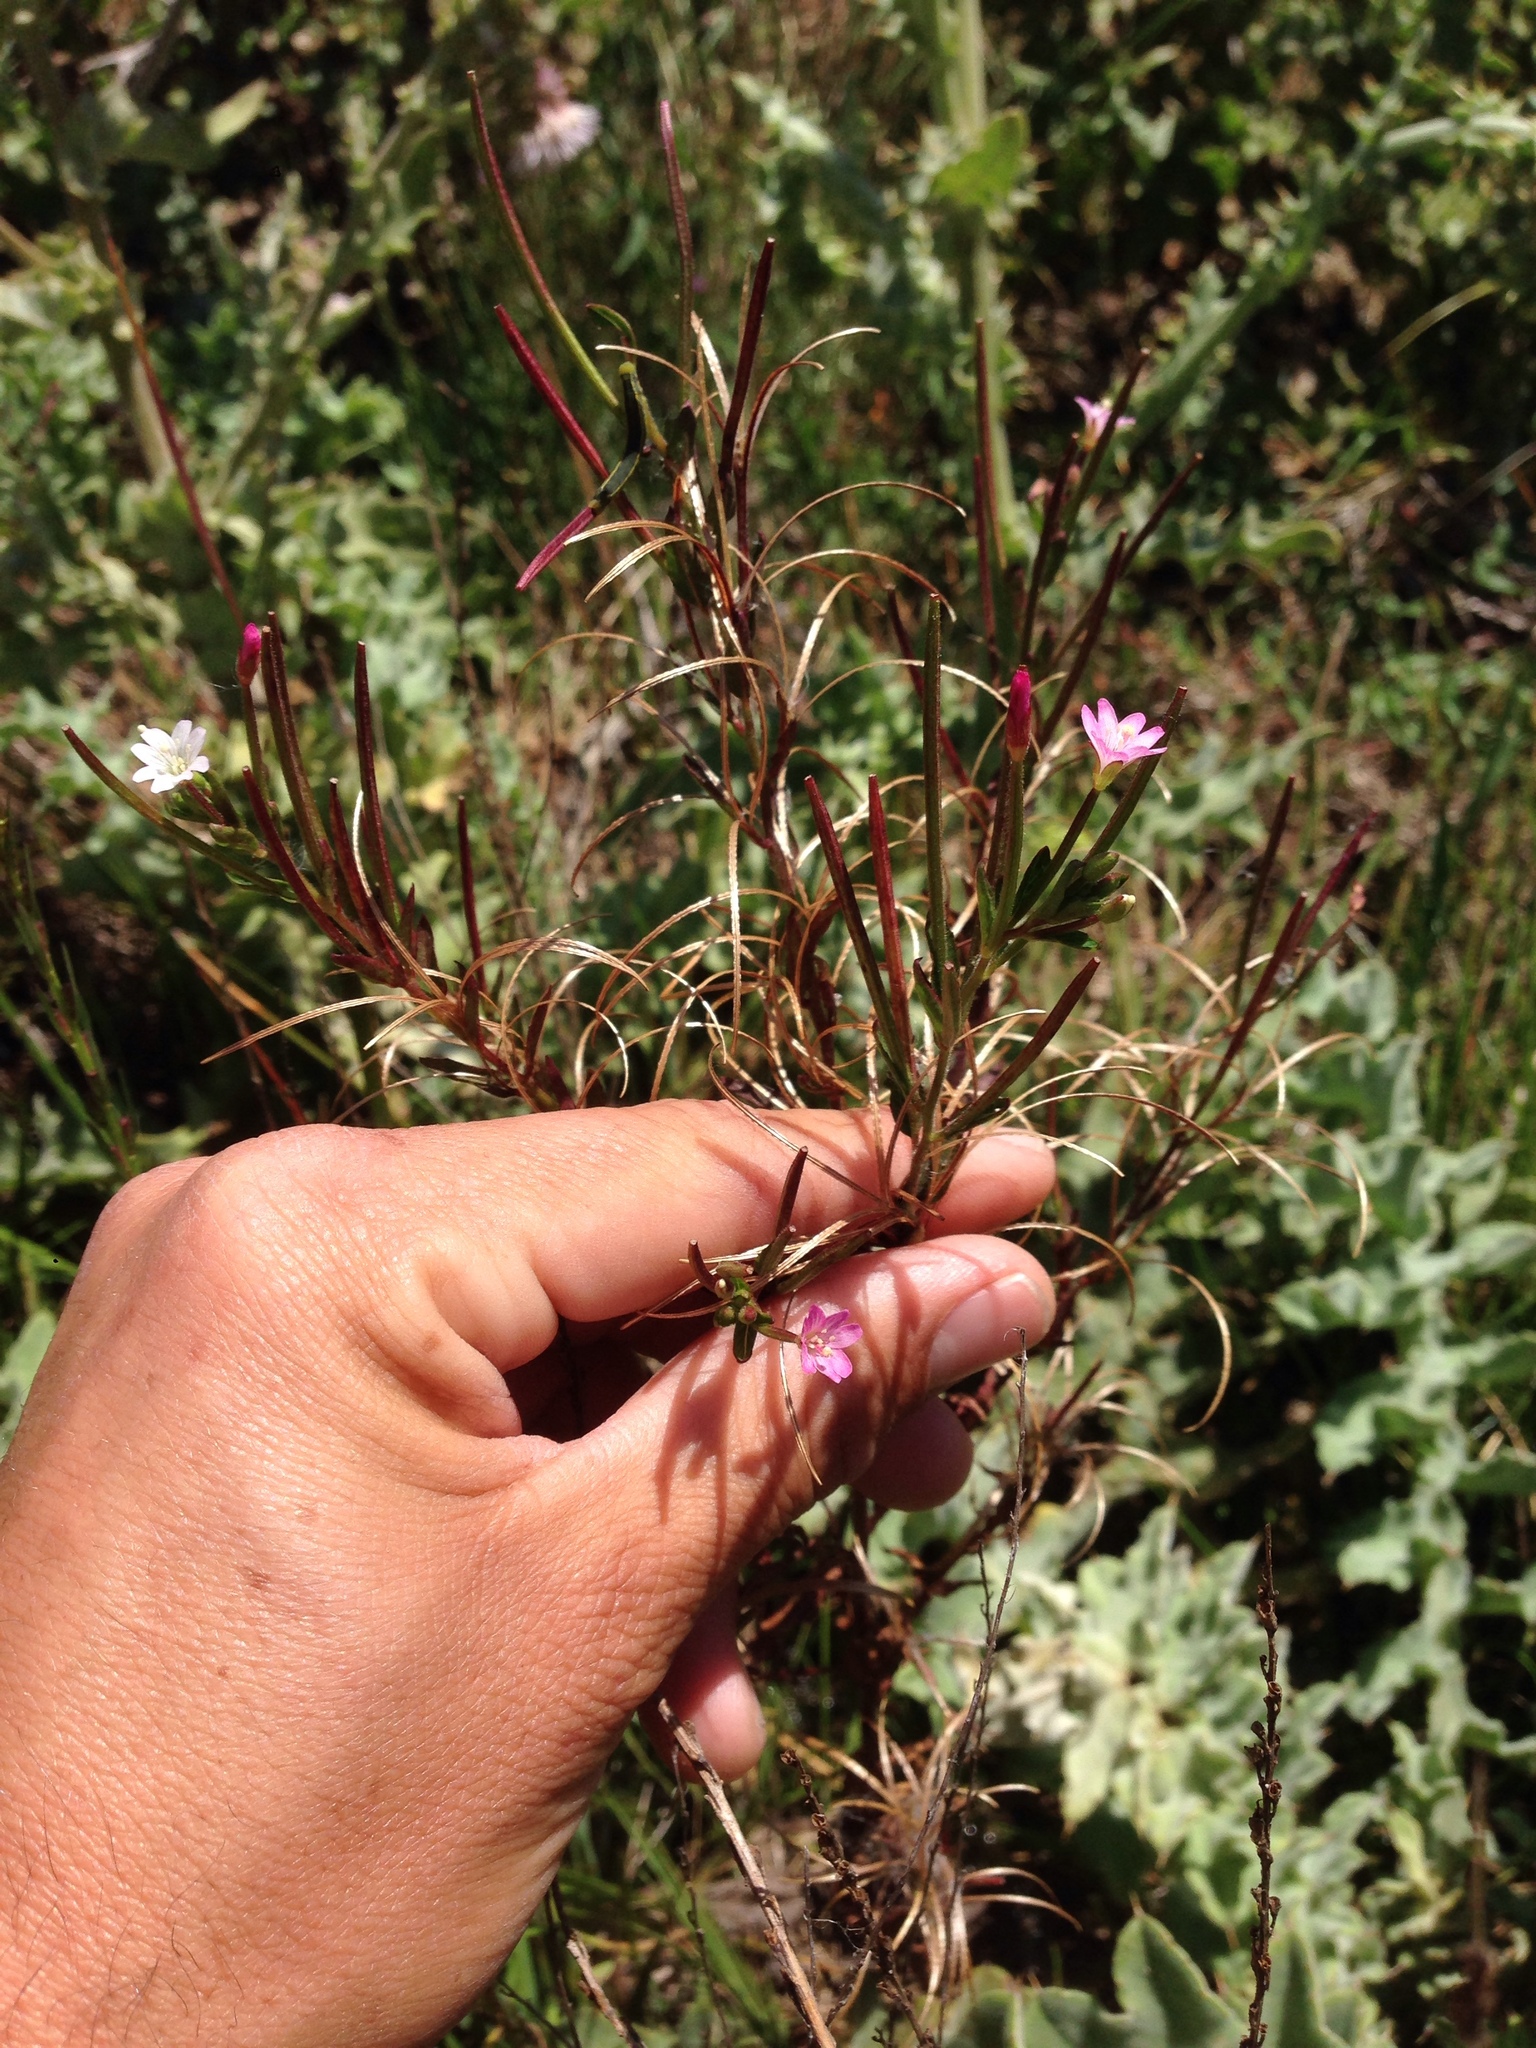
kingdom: Plantae
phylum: Tracheophyta
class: Magnoliopsida
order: Myrtales
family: Onagraceae
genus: Epilobium
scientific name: Epilobium ciliatum
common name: American willowherb
